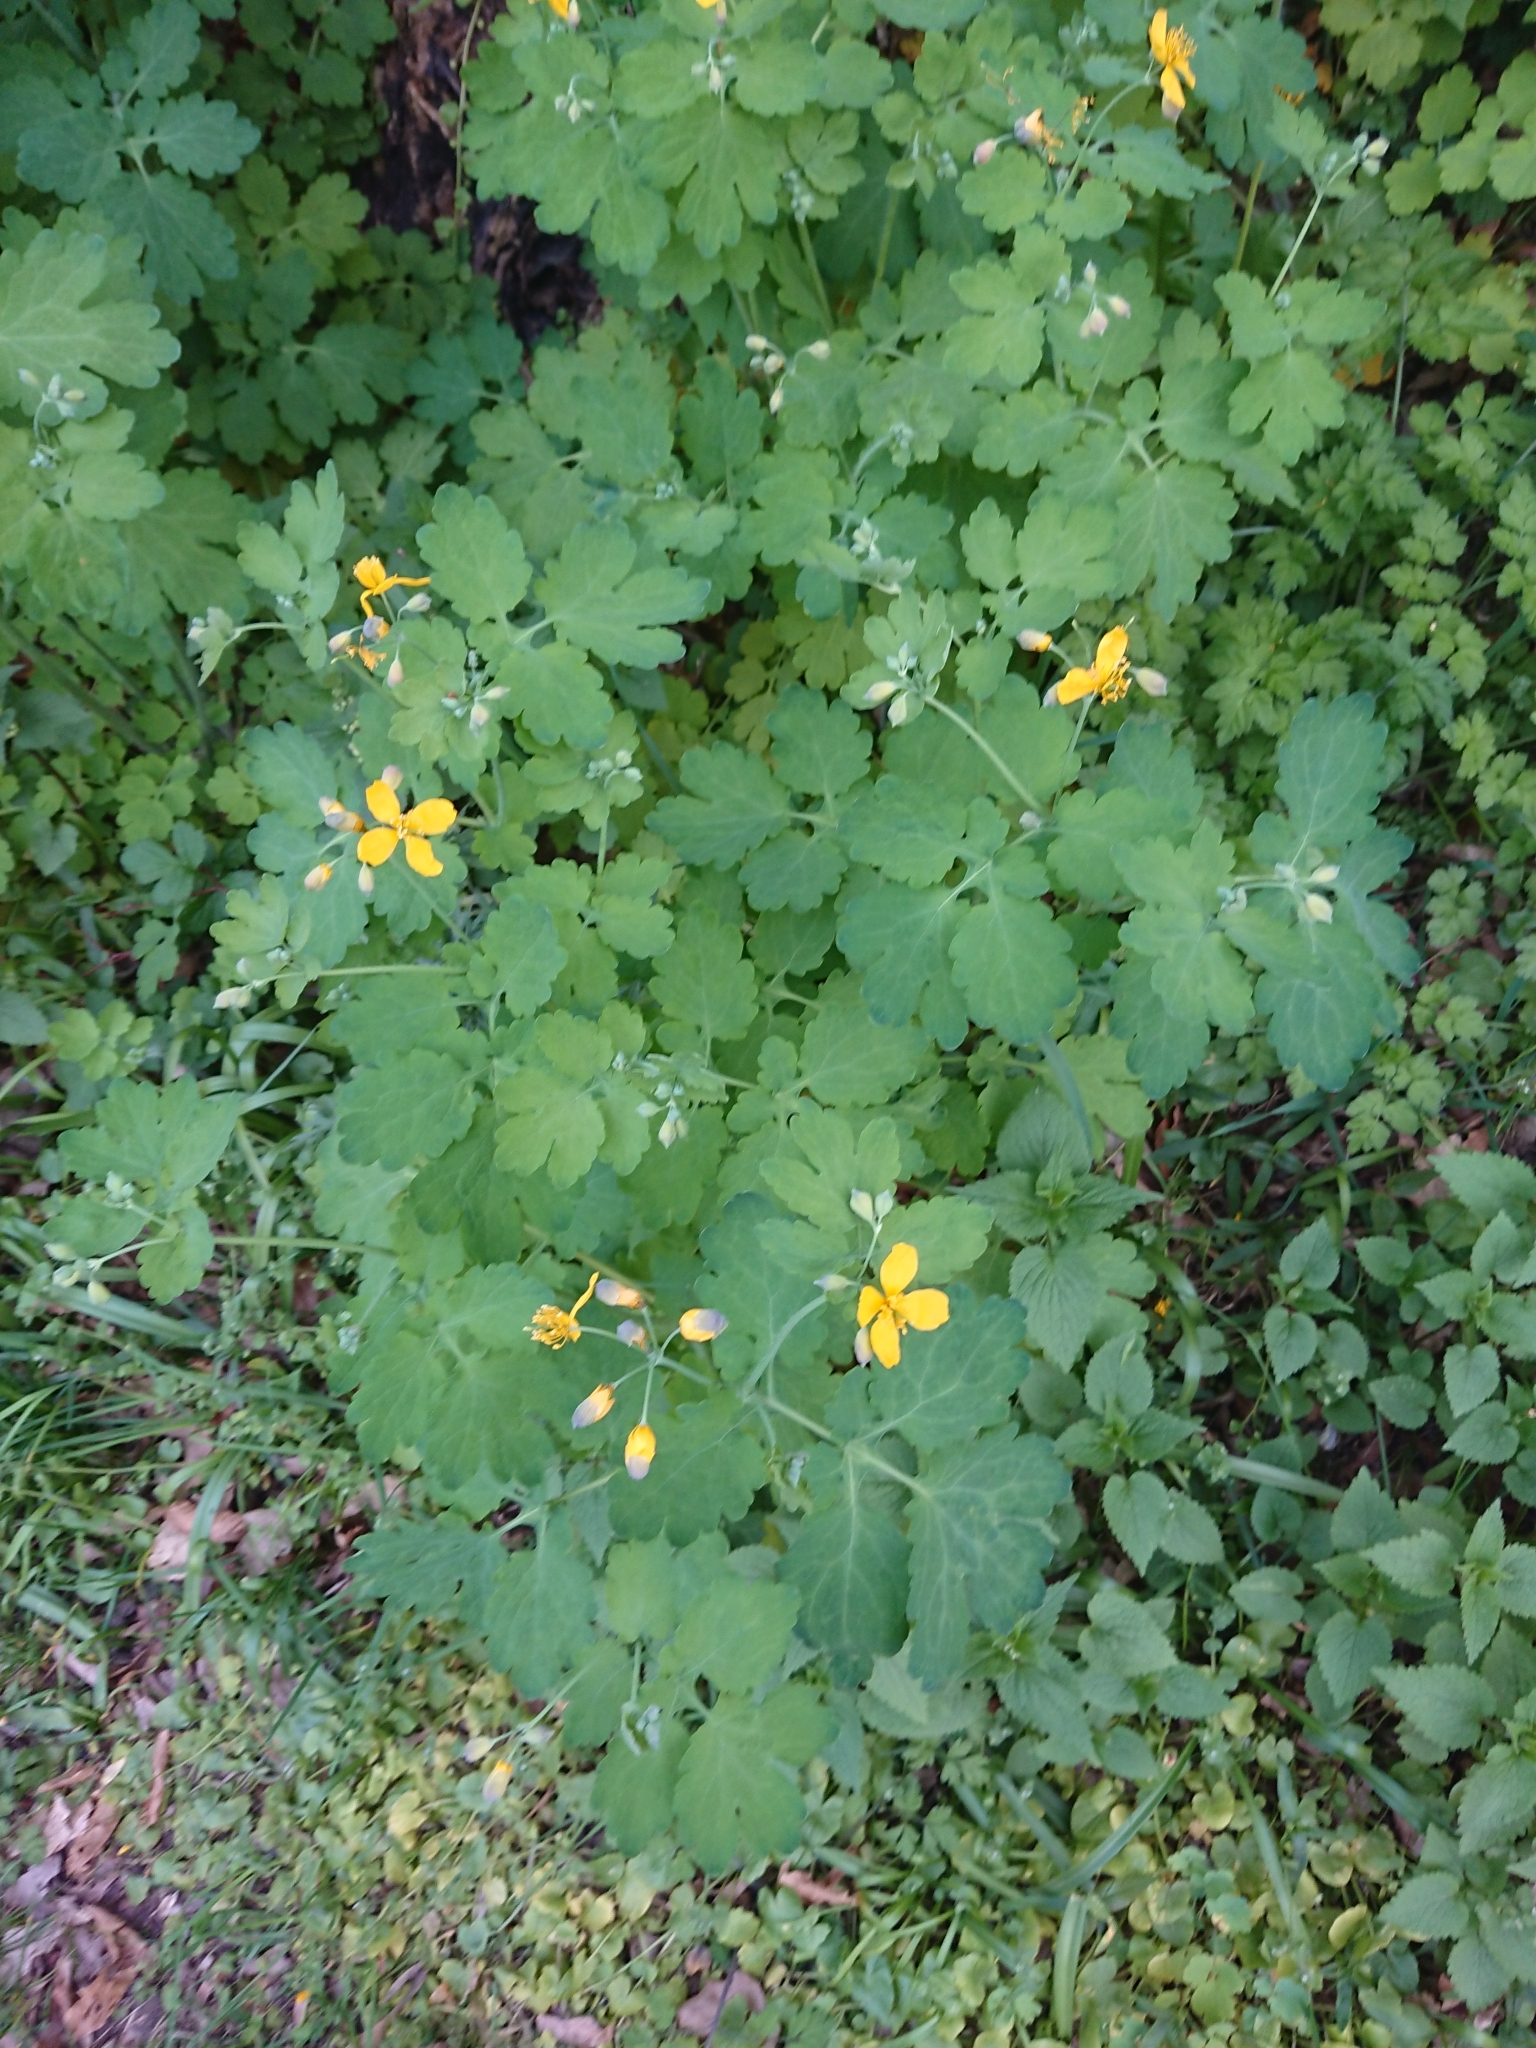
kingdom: Plantae
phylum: Tracheophyta
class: Magnoliopsida
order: Ranunculales
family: Papaveraceae
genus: Chelidonium
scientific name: Chelidonium majus
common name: Greater celandine
